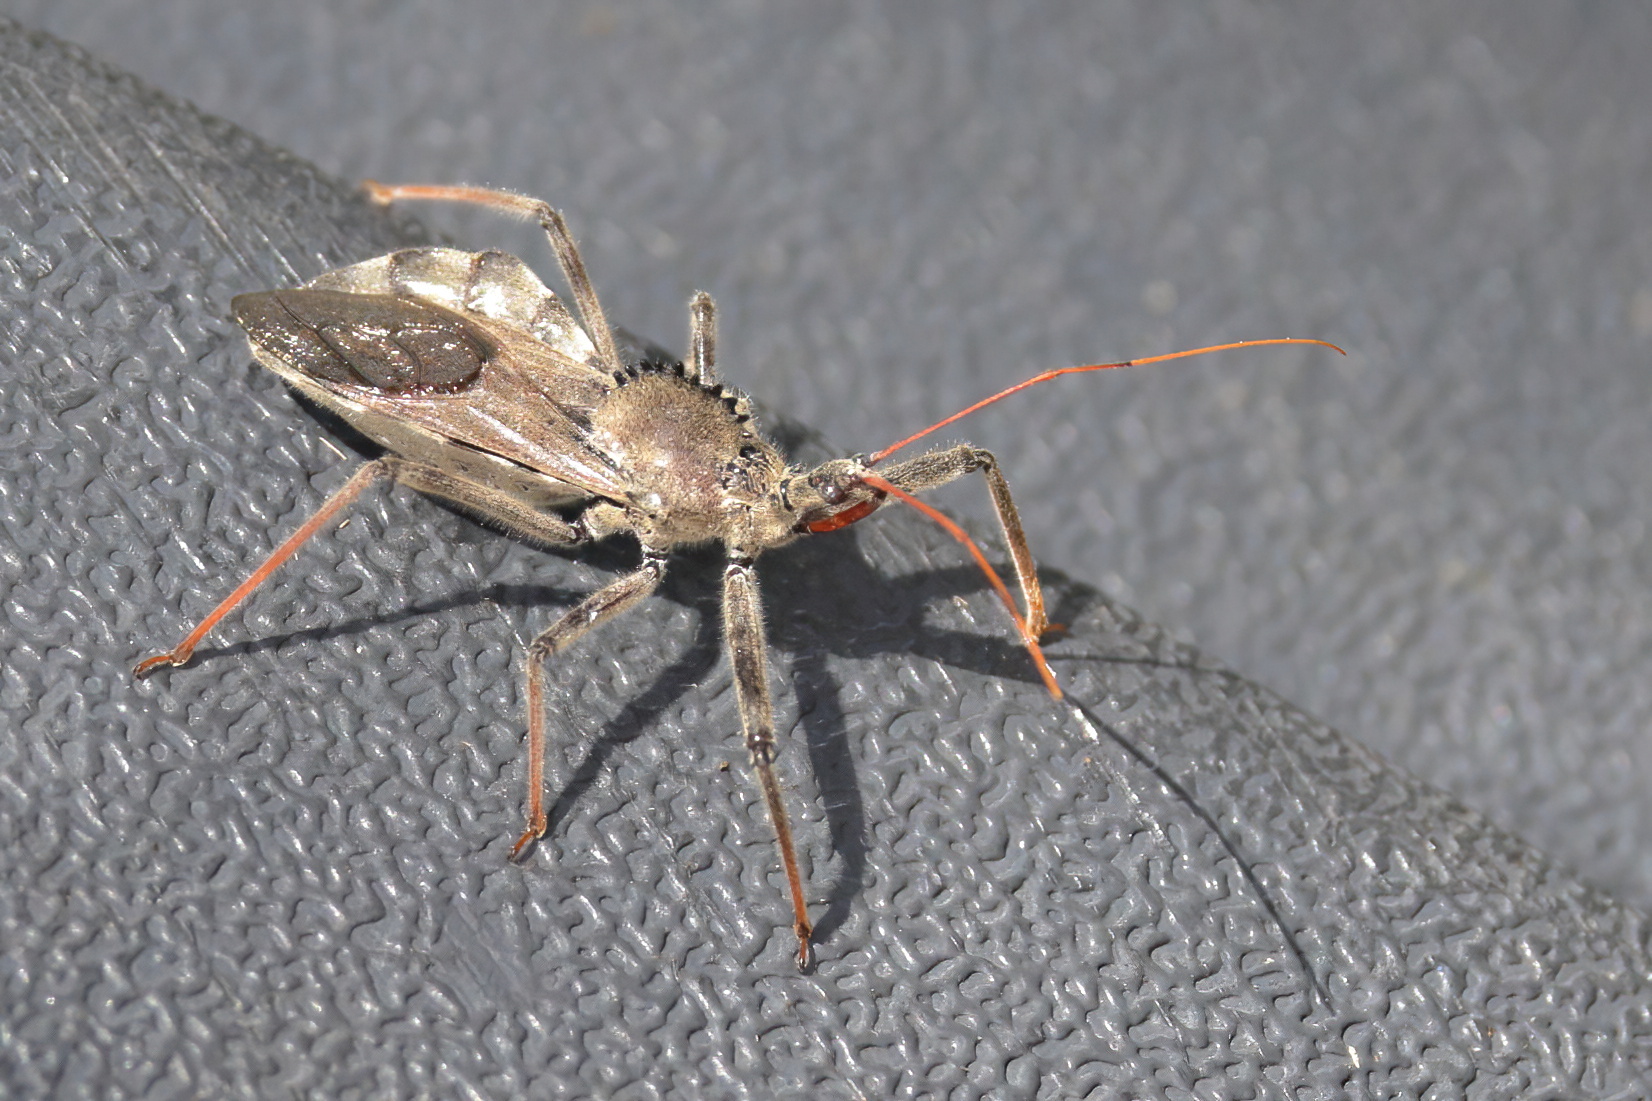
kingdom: Animalia
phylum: Arthropoda
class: Insecta
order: Hemiptera
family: Reduviidae
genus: Arilus
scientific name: Arilus cristatus
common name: North american wheel bug
